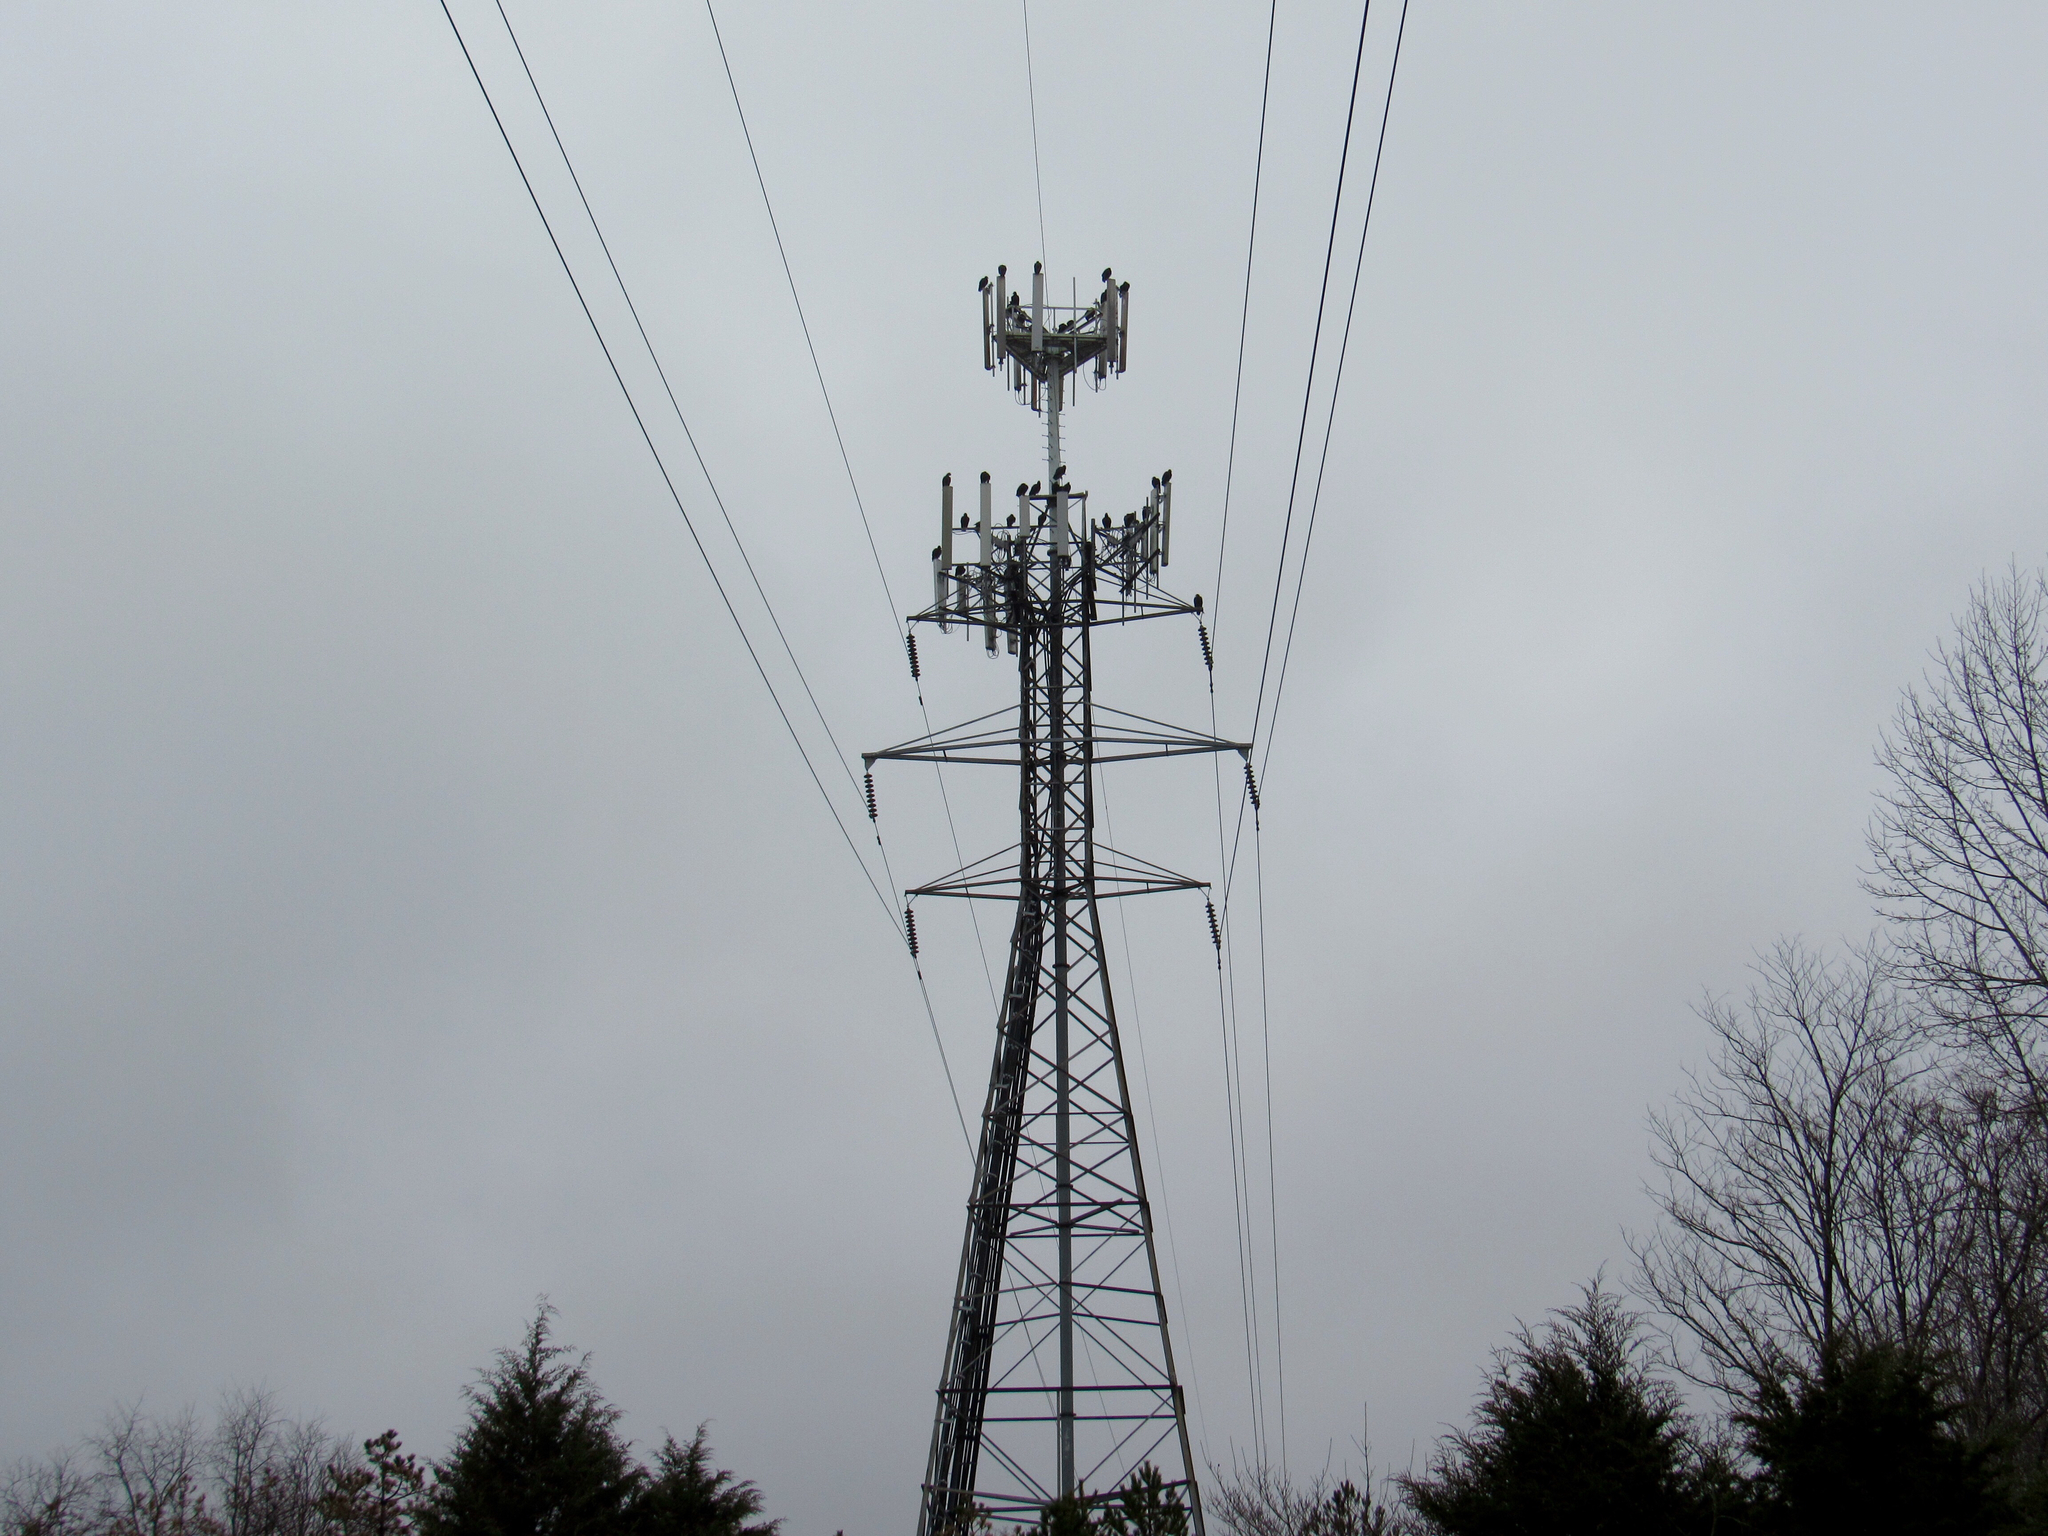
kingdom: Animalia
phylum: Chordata
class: Aves
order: Accipitriformes
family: Cathartidae
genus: Coragyps
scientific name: Coragyps atratus
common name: Black vulture
